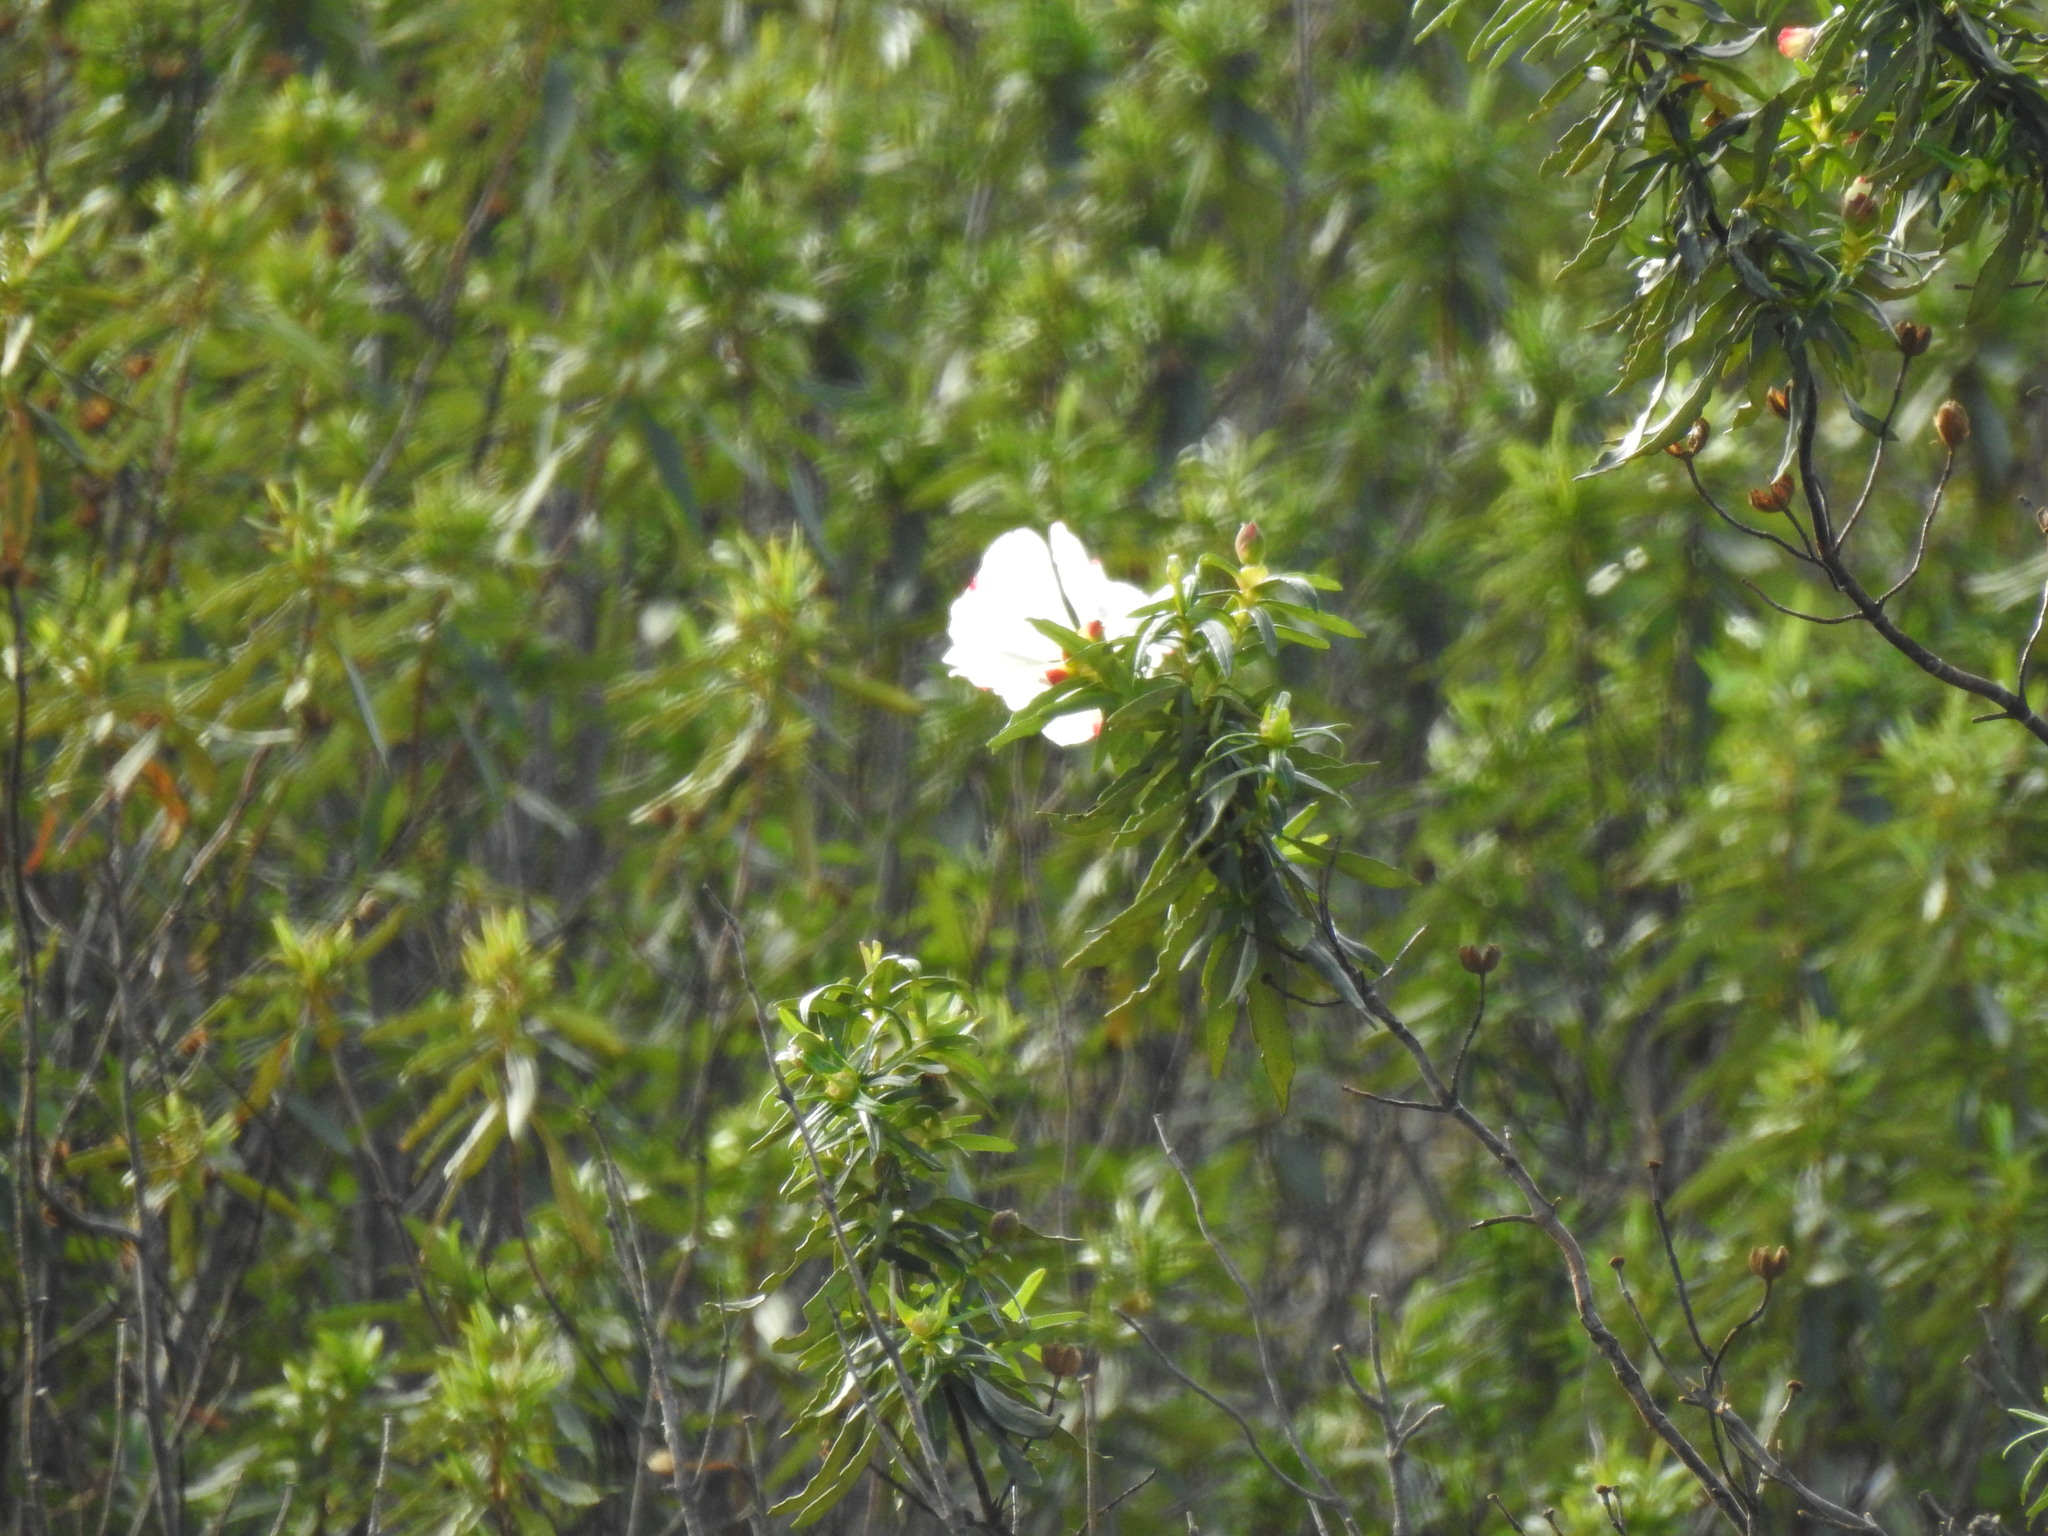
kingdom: Plantae
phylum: Tracheophyta
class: Magnoliopsida
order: Malvales
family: Cistaceae
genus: Cistus
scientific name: Cistus ladanifer
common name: Common gum cistus
